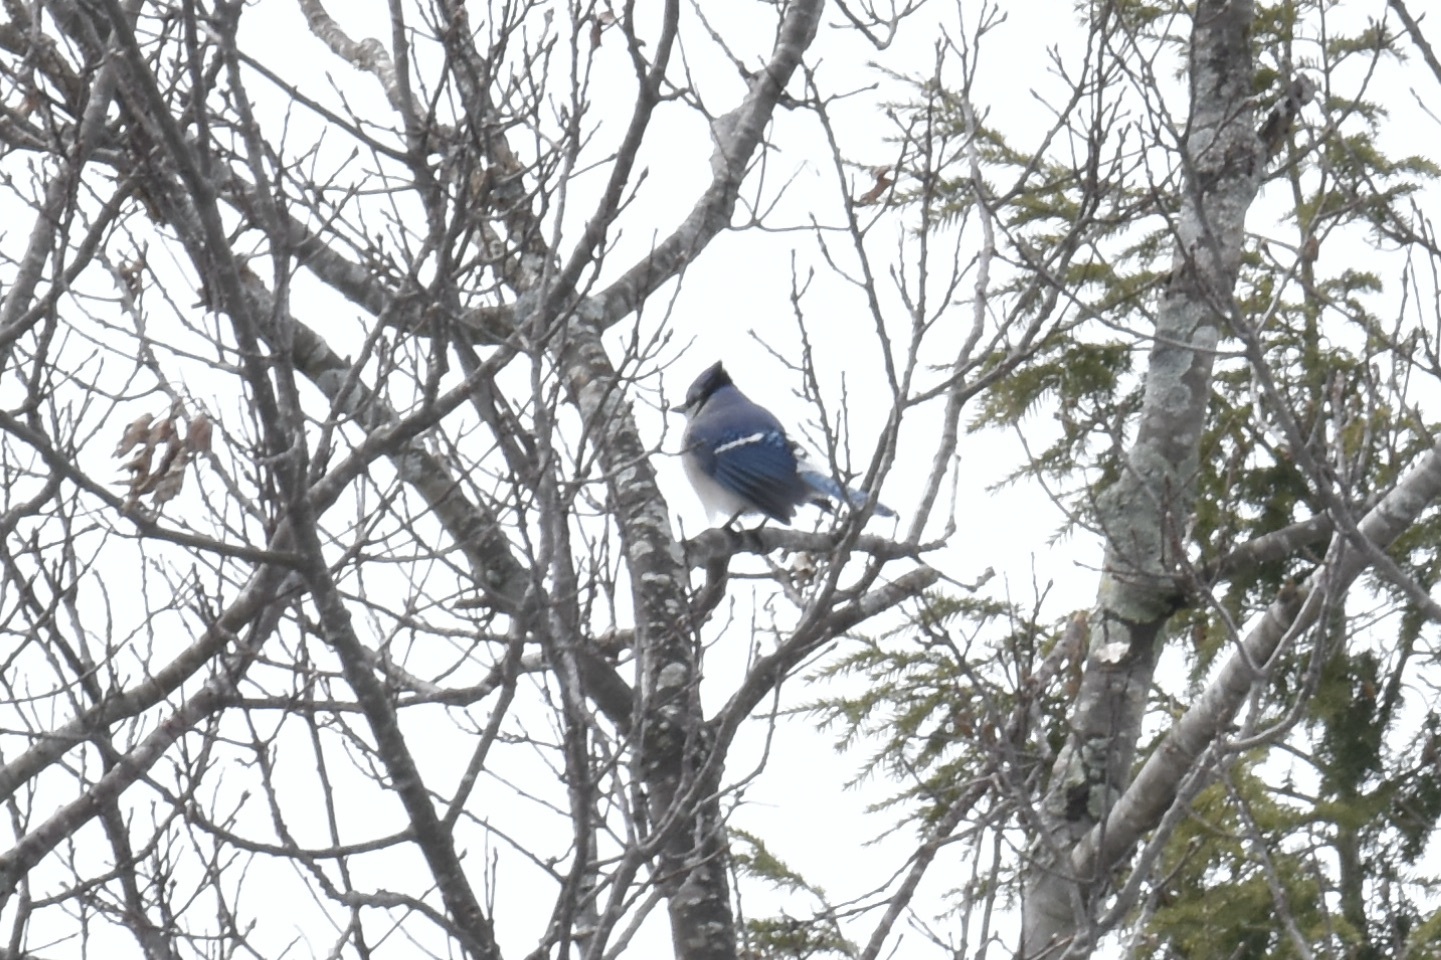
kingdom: Animalia
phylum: Chordata
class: Aves
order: Passeriformes
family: Corvidae
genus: Cyanocitta
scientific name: Cyanocitta cristata
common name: Blue jay
